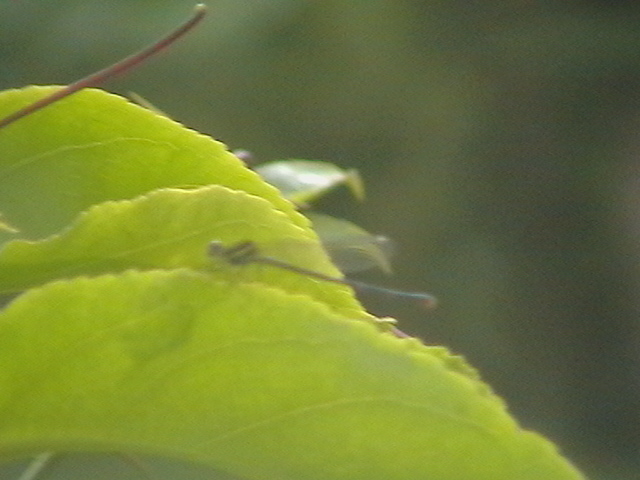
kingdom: Animalia
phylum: Arthropoda
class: Insecta
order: Odonata
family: Platycnemididae
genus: Onychargia
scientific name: Onychargia atrocyana
